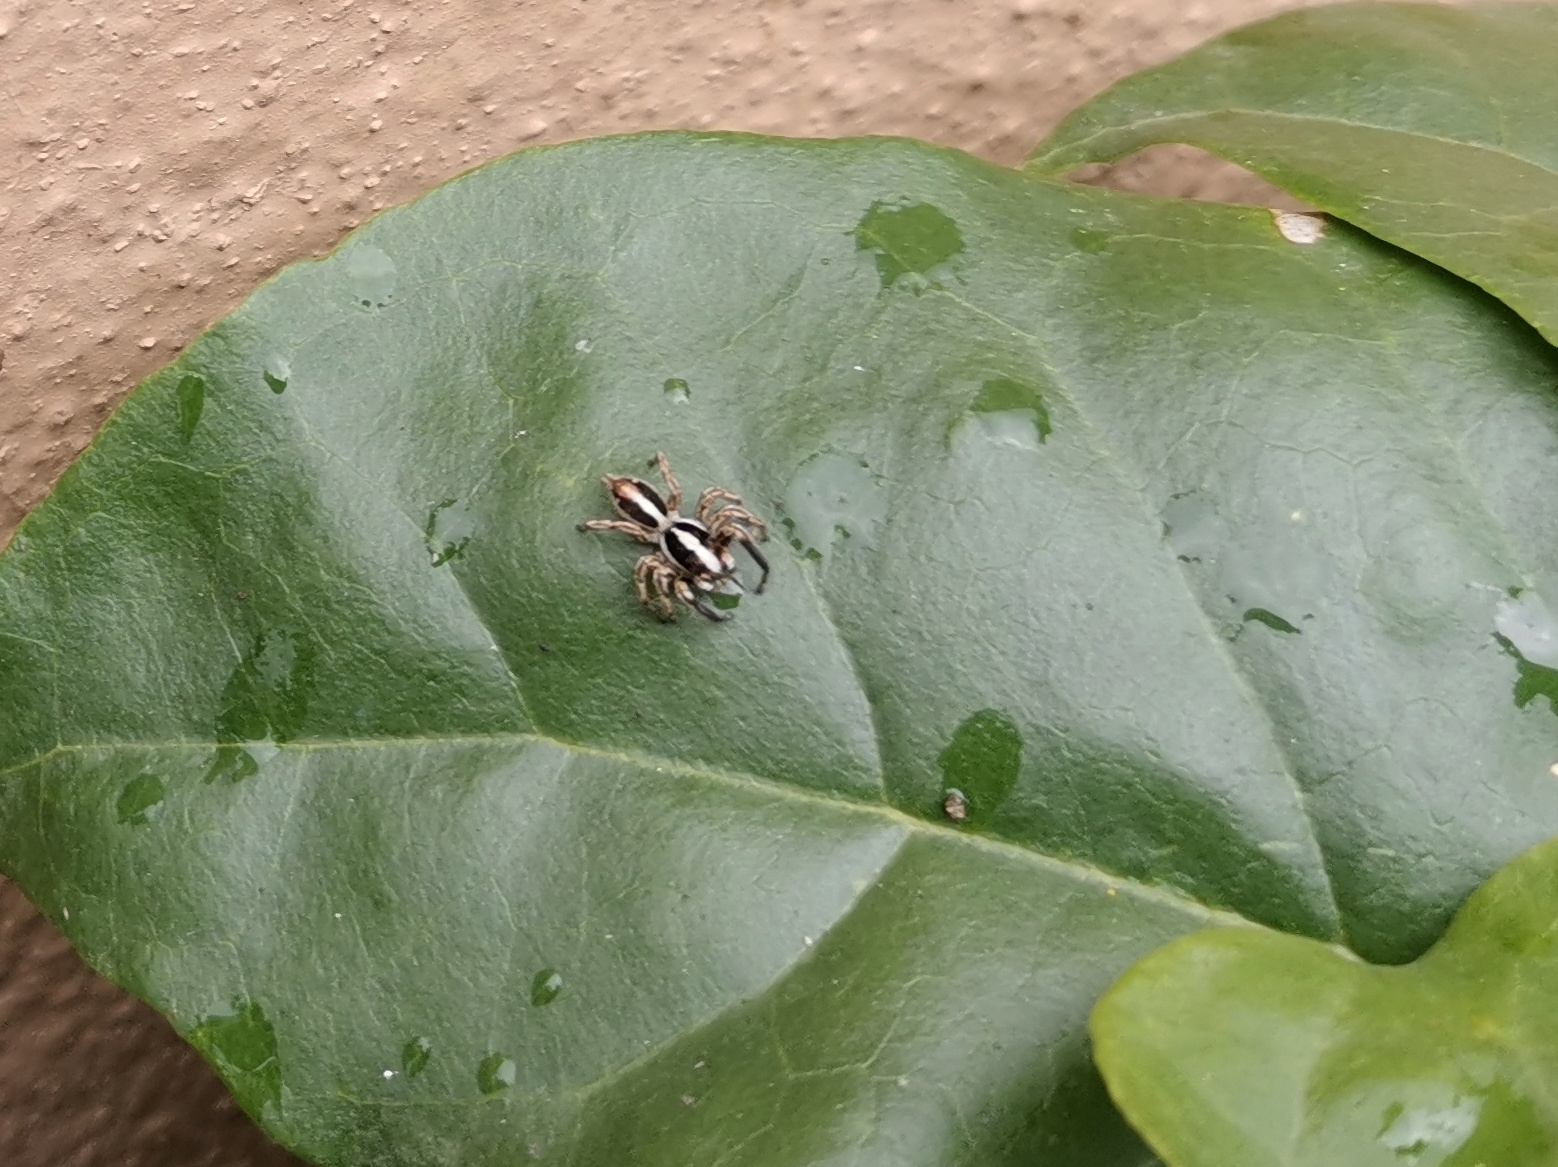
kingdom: Animalia
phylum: Arthropoda
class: Arachnida
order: Araneae
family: Salticidae
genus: Plexippus
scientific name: Plexippus paykulli
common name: Pantropical jumper
